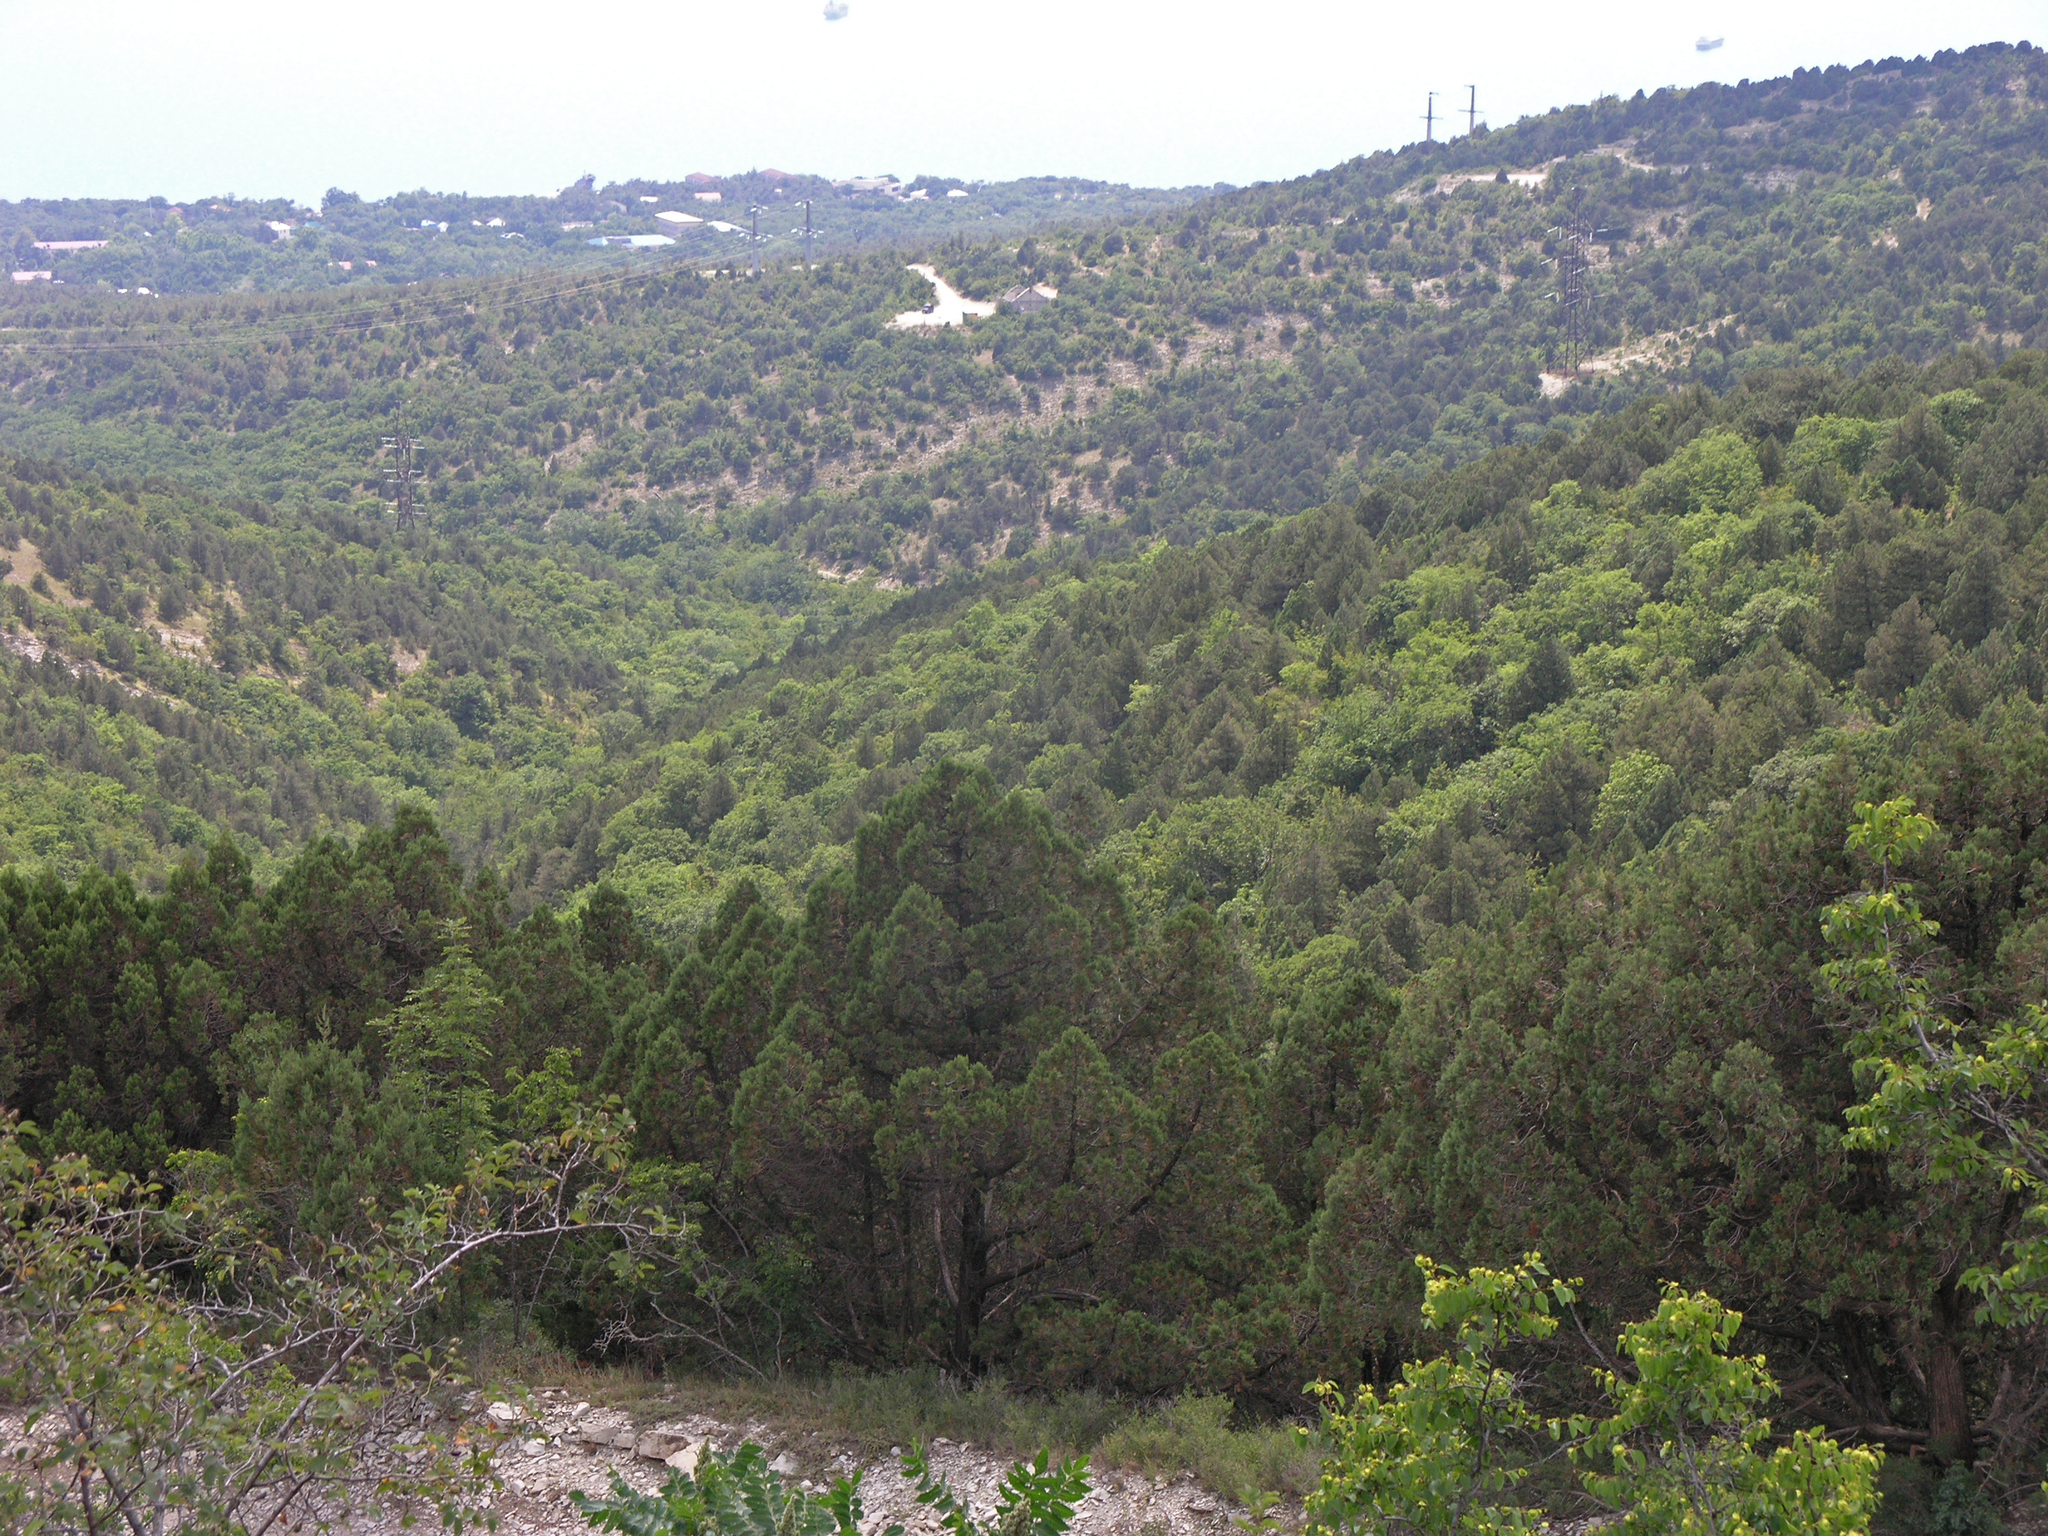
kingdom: Plantae
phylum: Tracheophyta
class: Pinopsida
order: Pinales
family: Cupressaceae
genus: Juniperus
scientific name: Juniperus excelsa
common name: Crimean juniper
